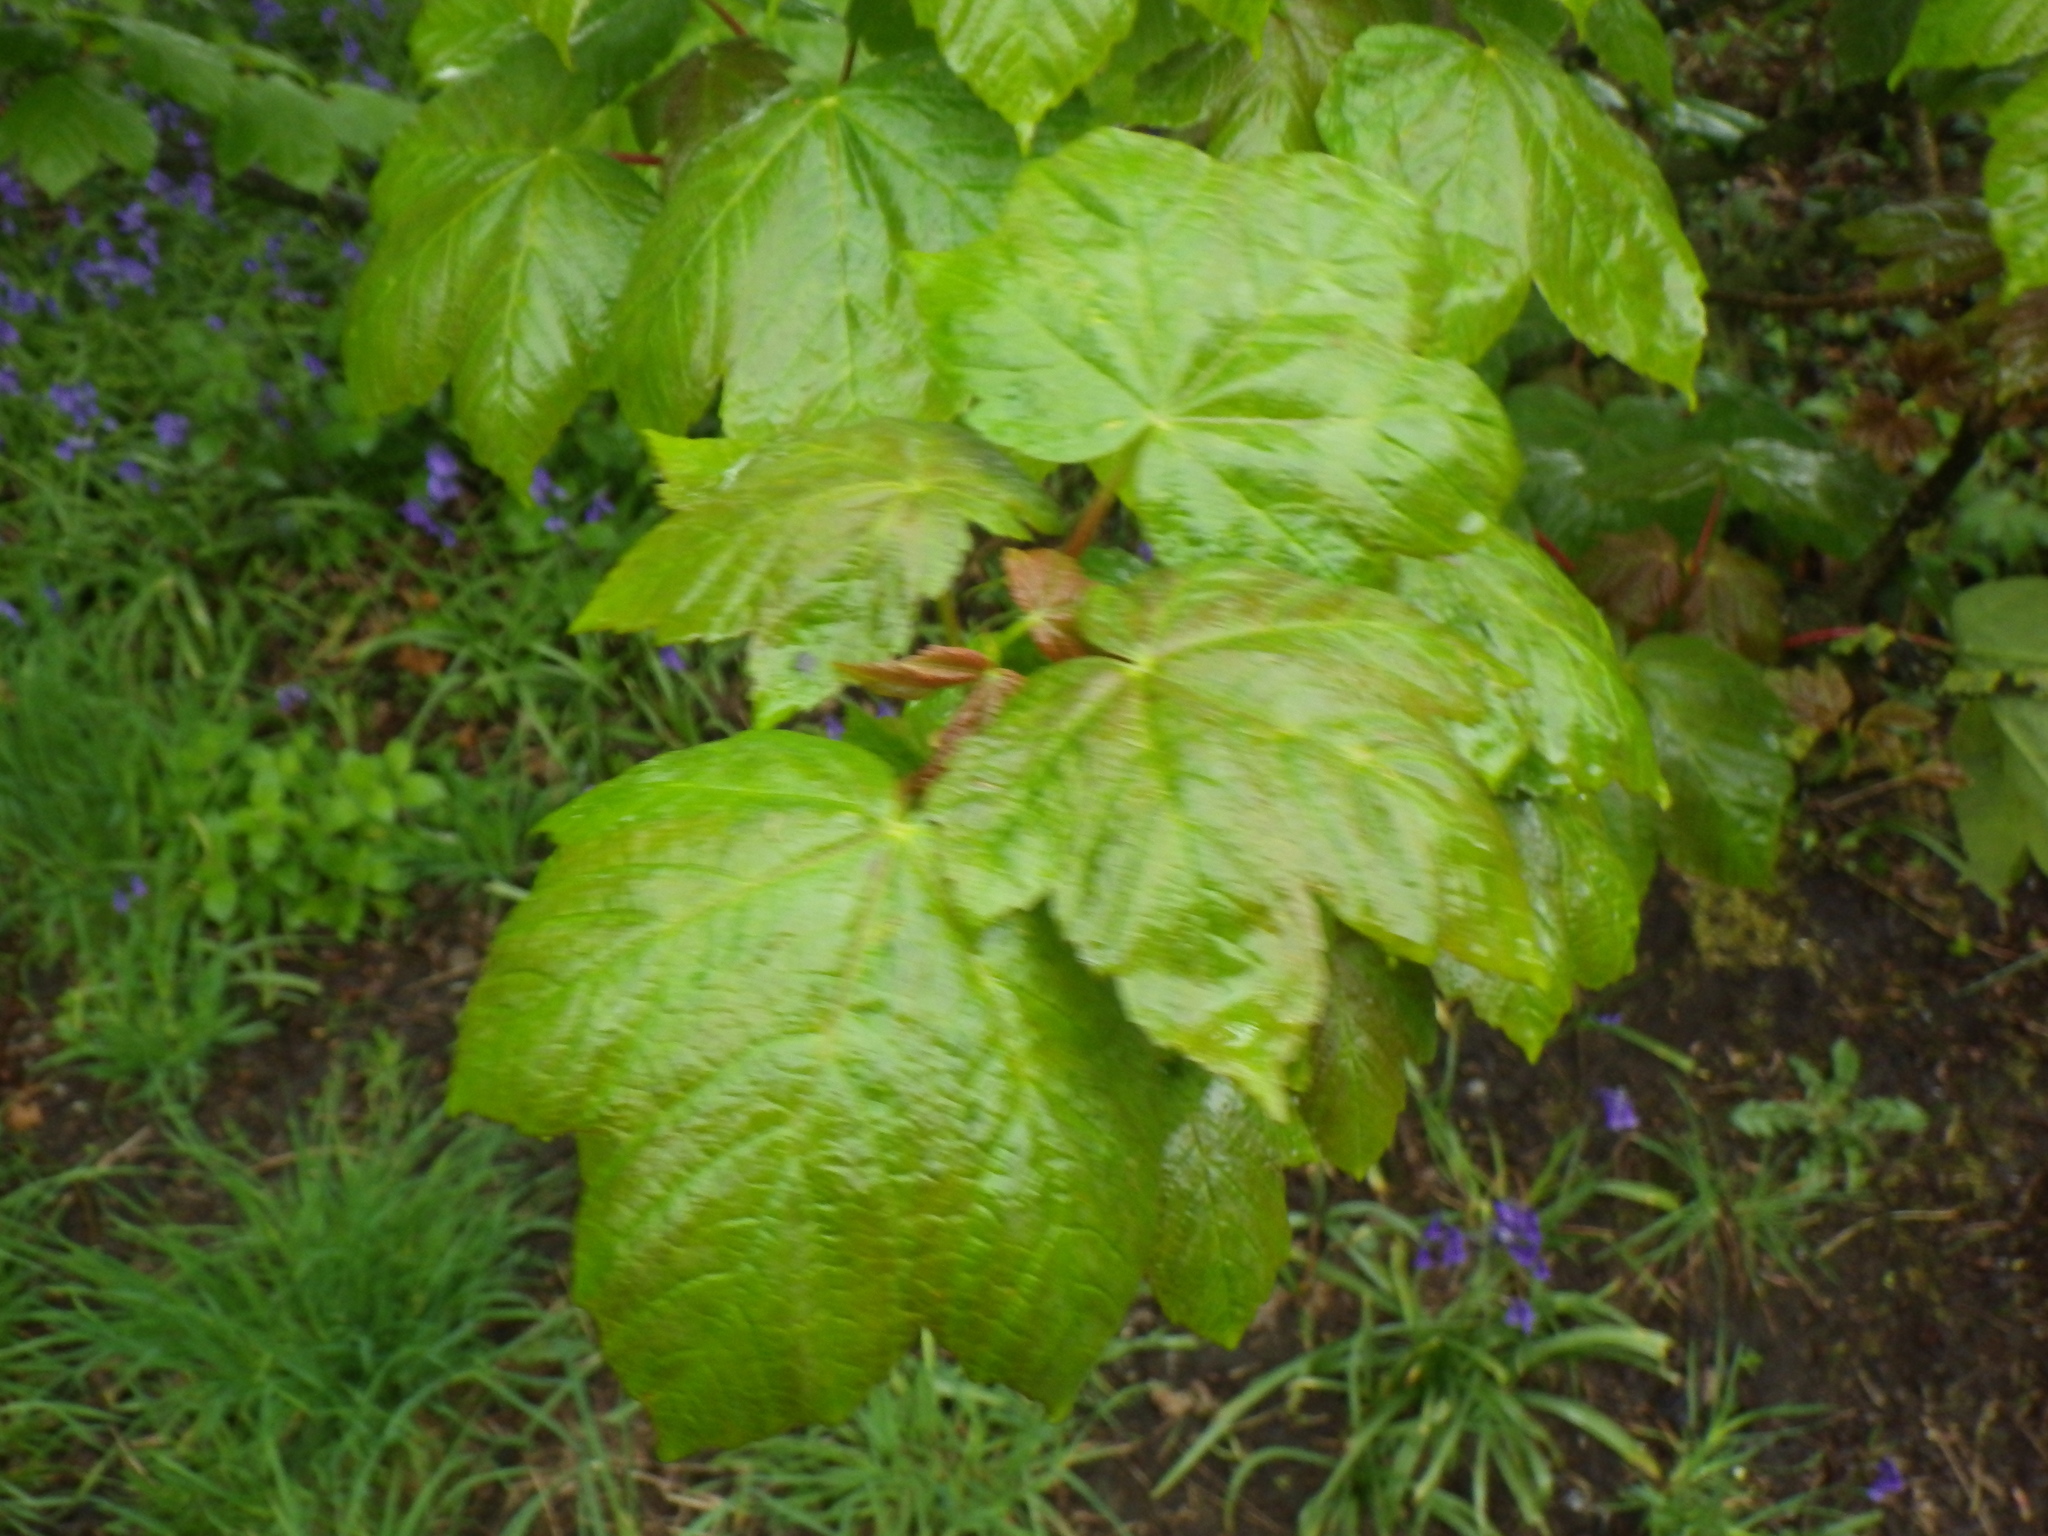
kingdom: Plantae
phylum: Tracheophyta
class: Magnoliopsida
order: Sapindales
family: Sapindaceae
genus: Acer
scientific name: Acer pseudoplatanus
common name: Sycamore
